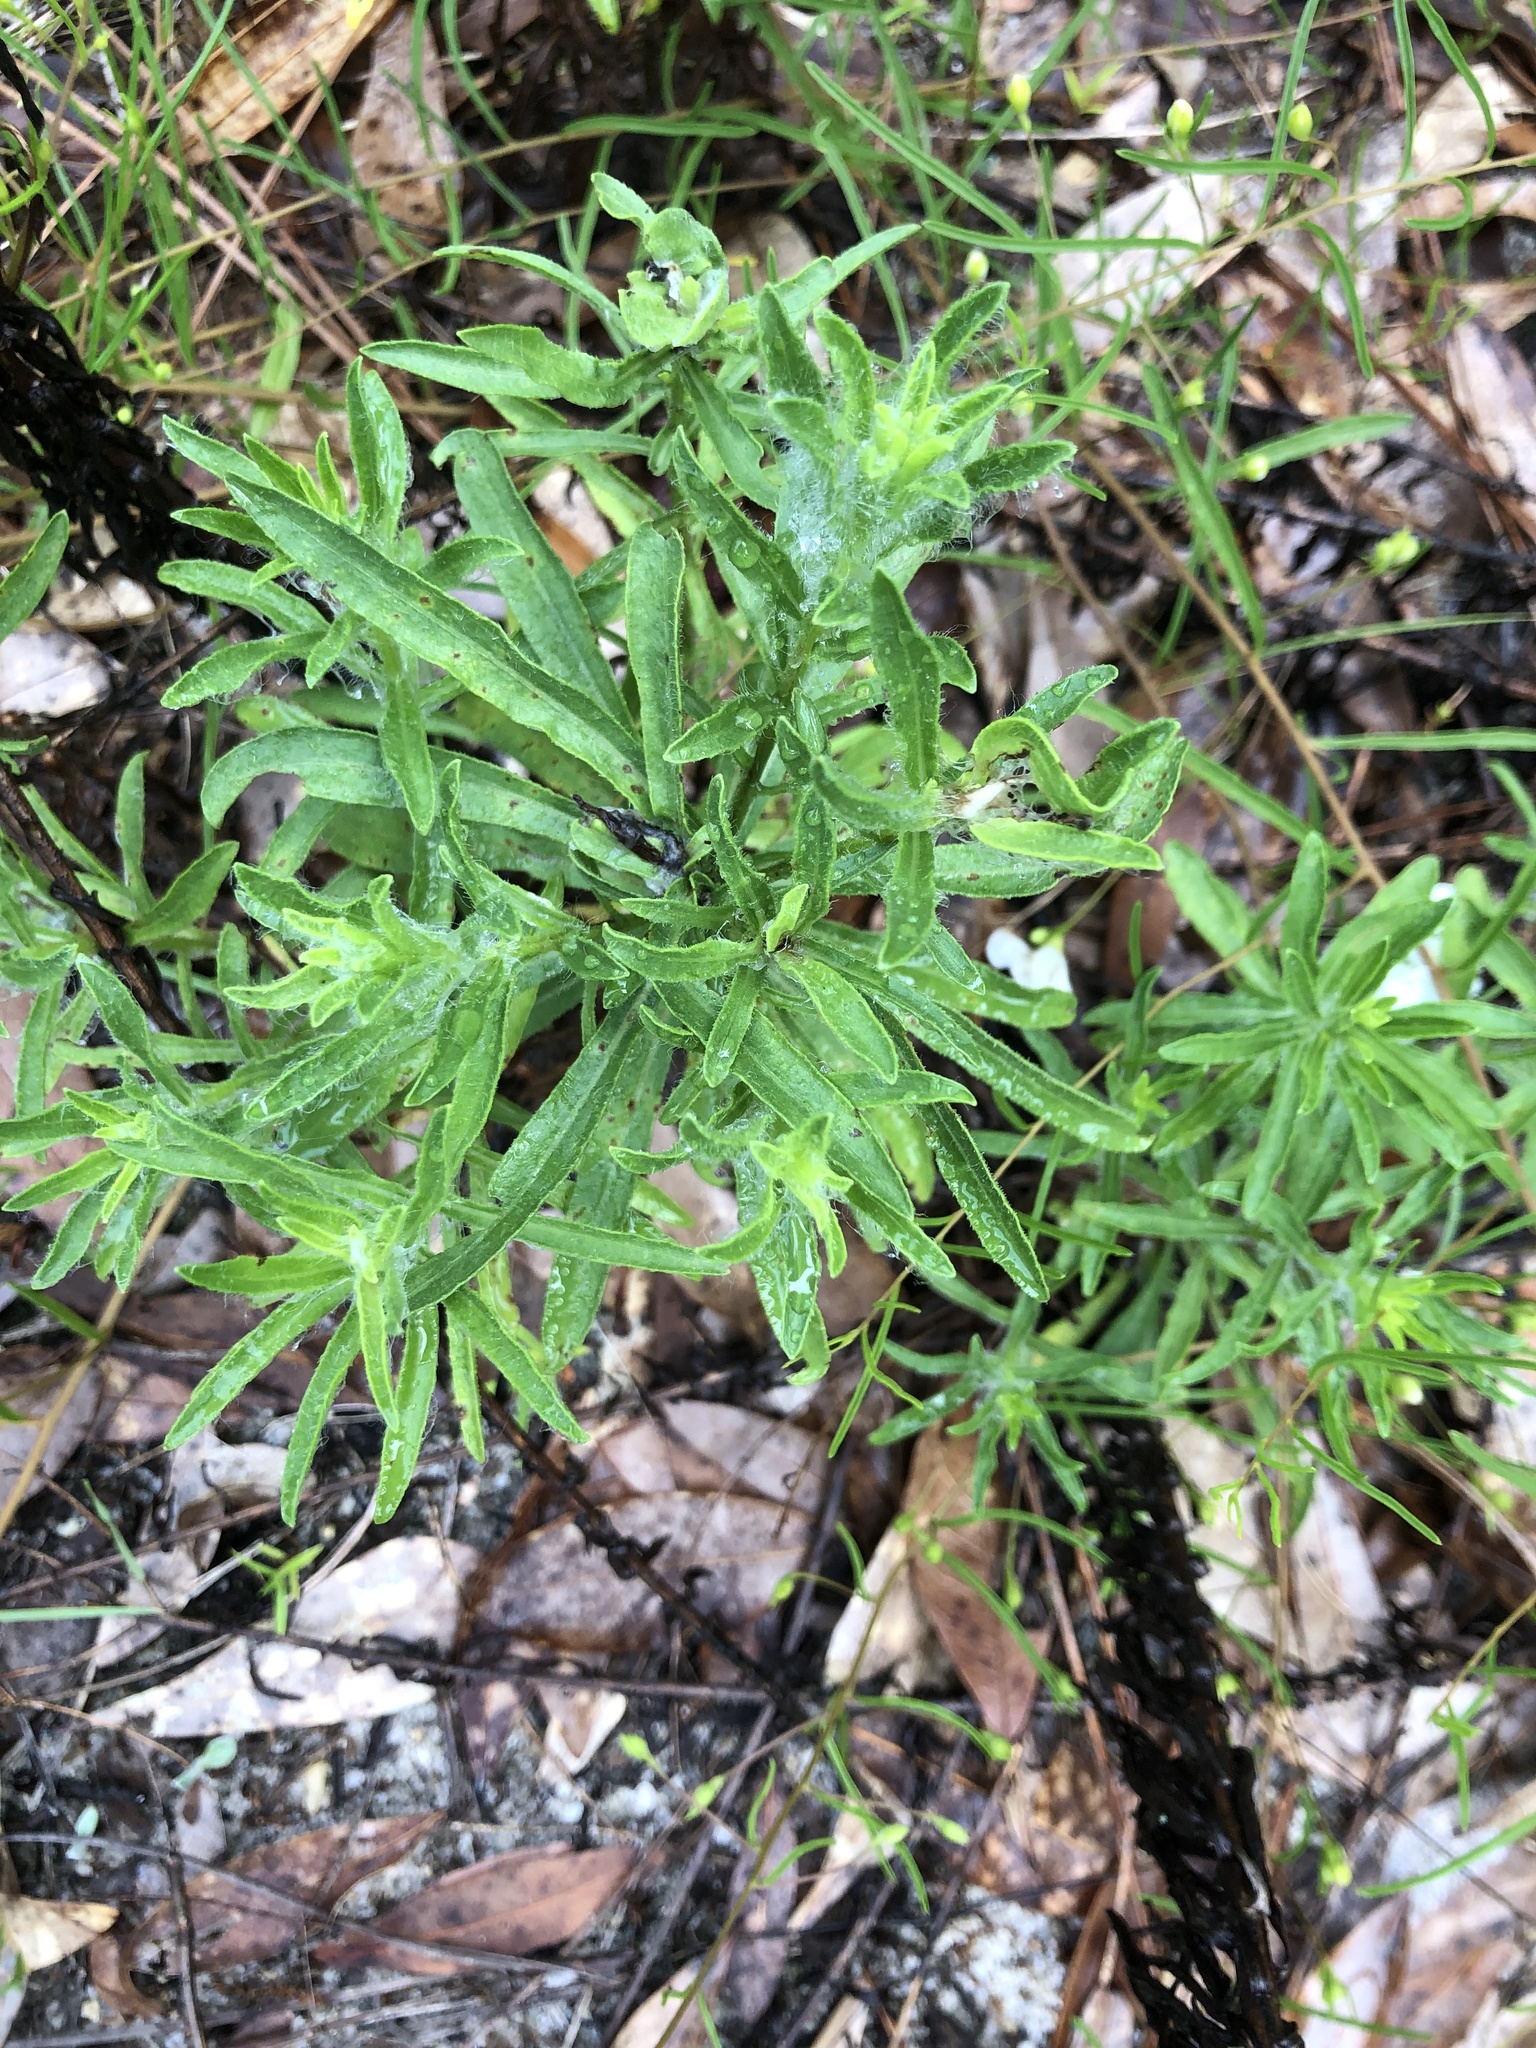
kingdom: Plantae
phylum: Tracheophyta
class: Magnoliopsida
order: Asterales
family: Asteraceae
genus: Chrysopsis
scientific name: Chrysopsis gossypina
